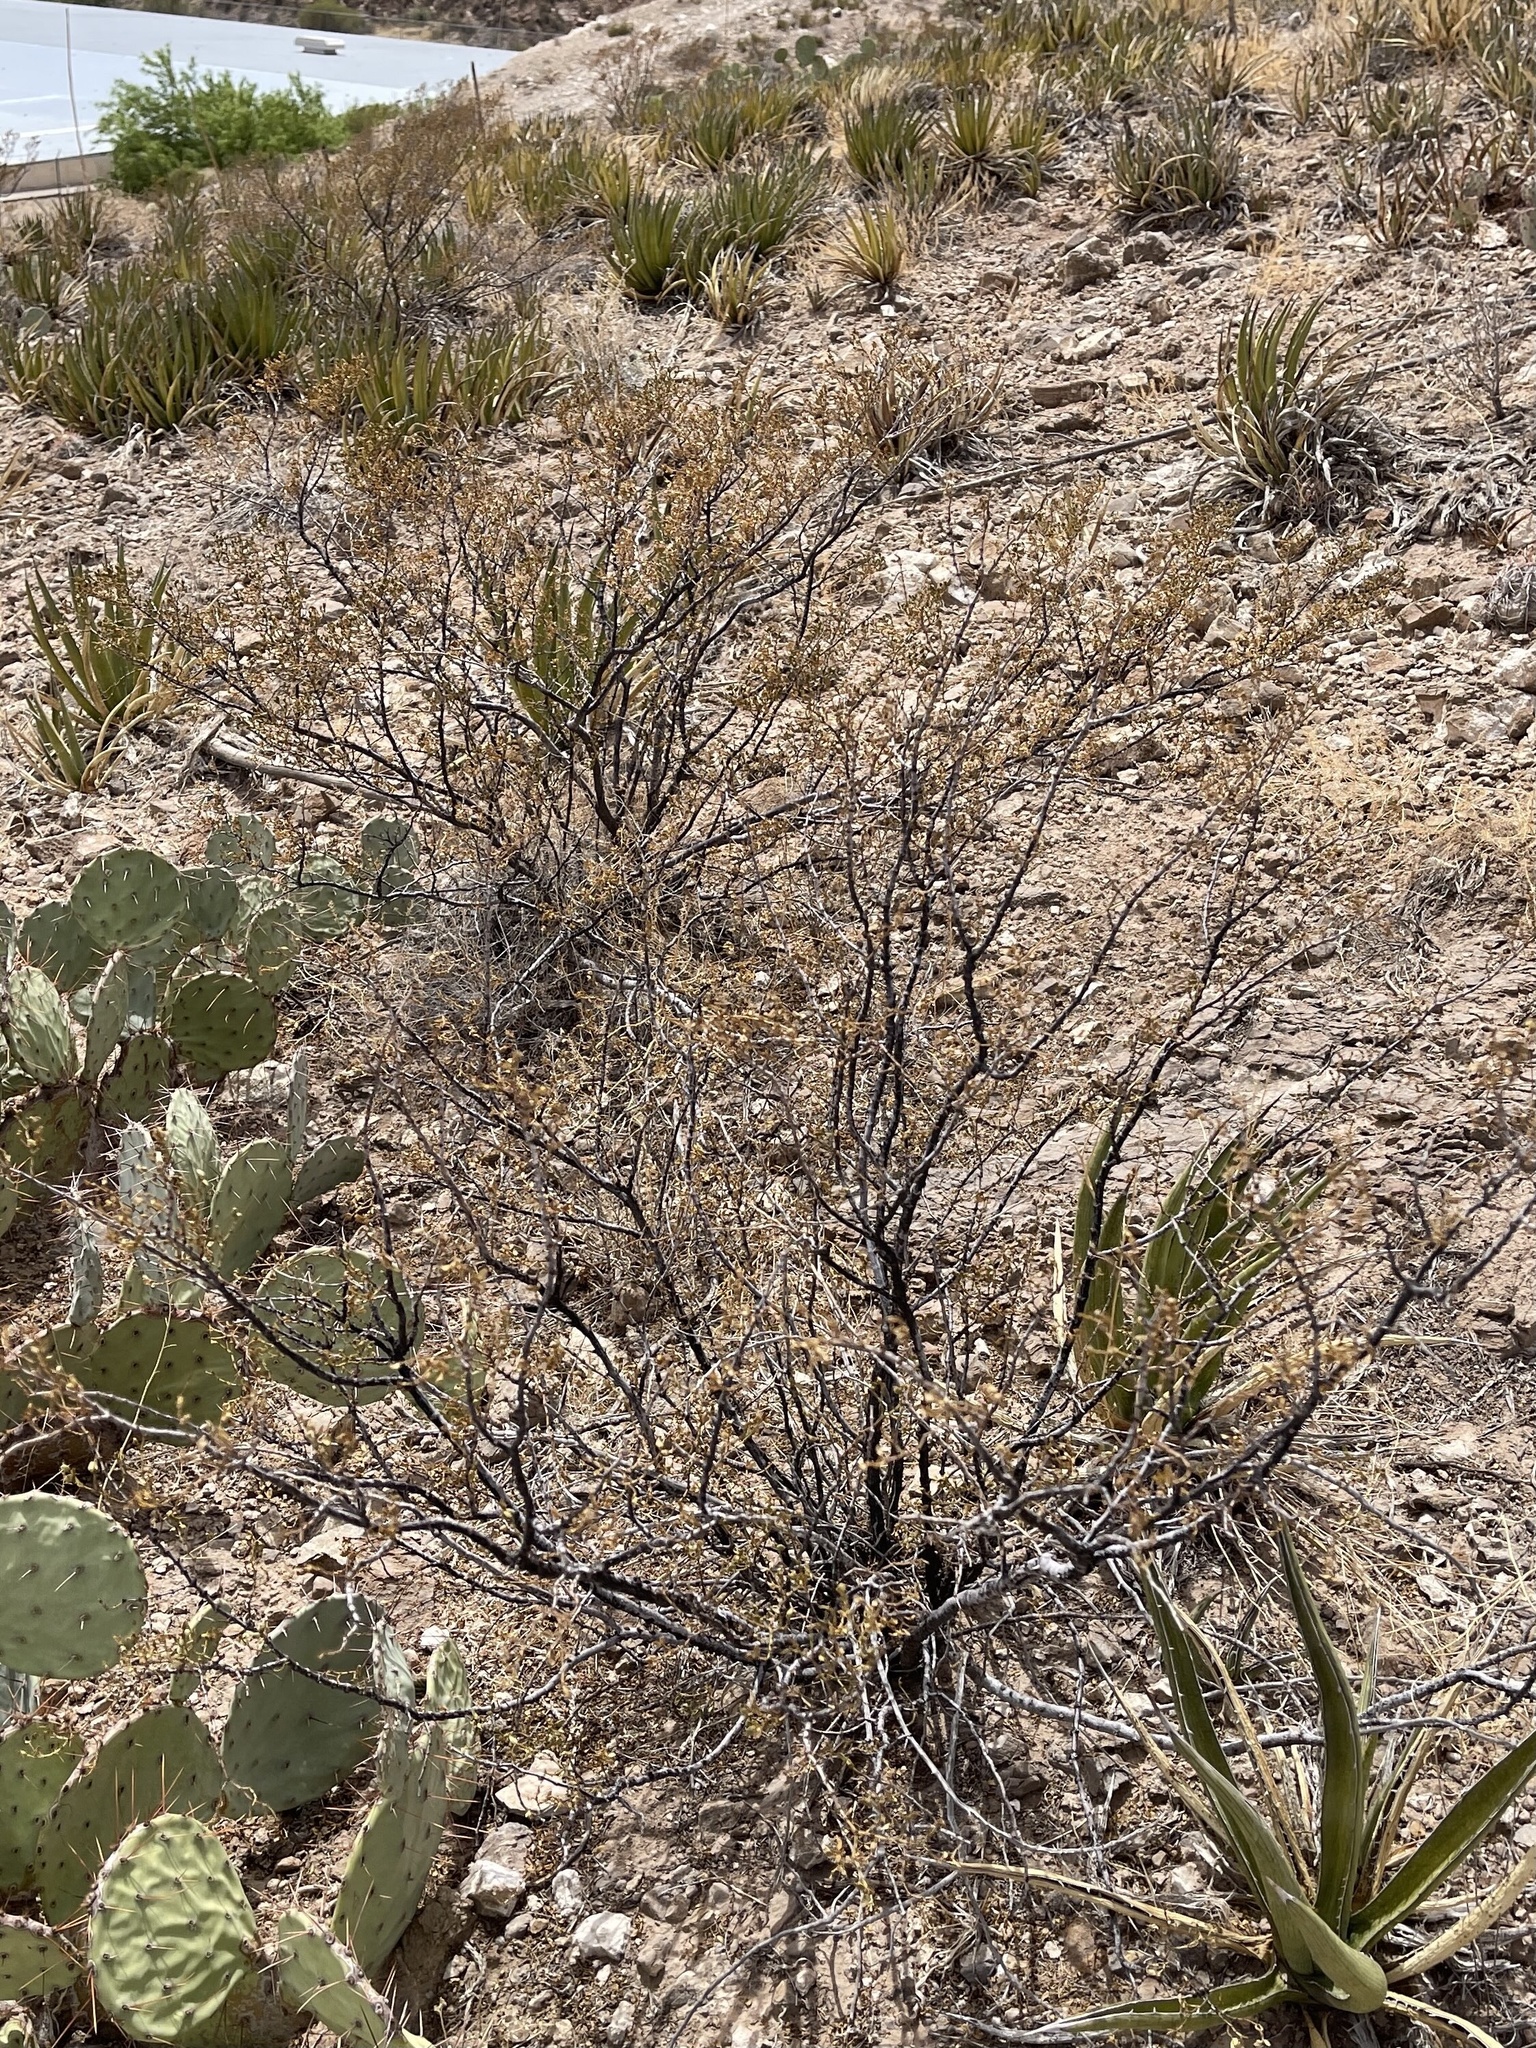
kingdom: Plantae
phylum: Tracheophyta
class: Magnoliopsida
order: Zygophyllales
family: Zygophyllaceae
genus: Larrea
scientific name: Larrea tridentata
